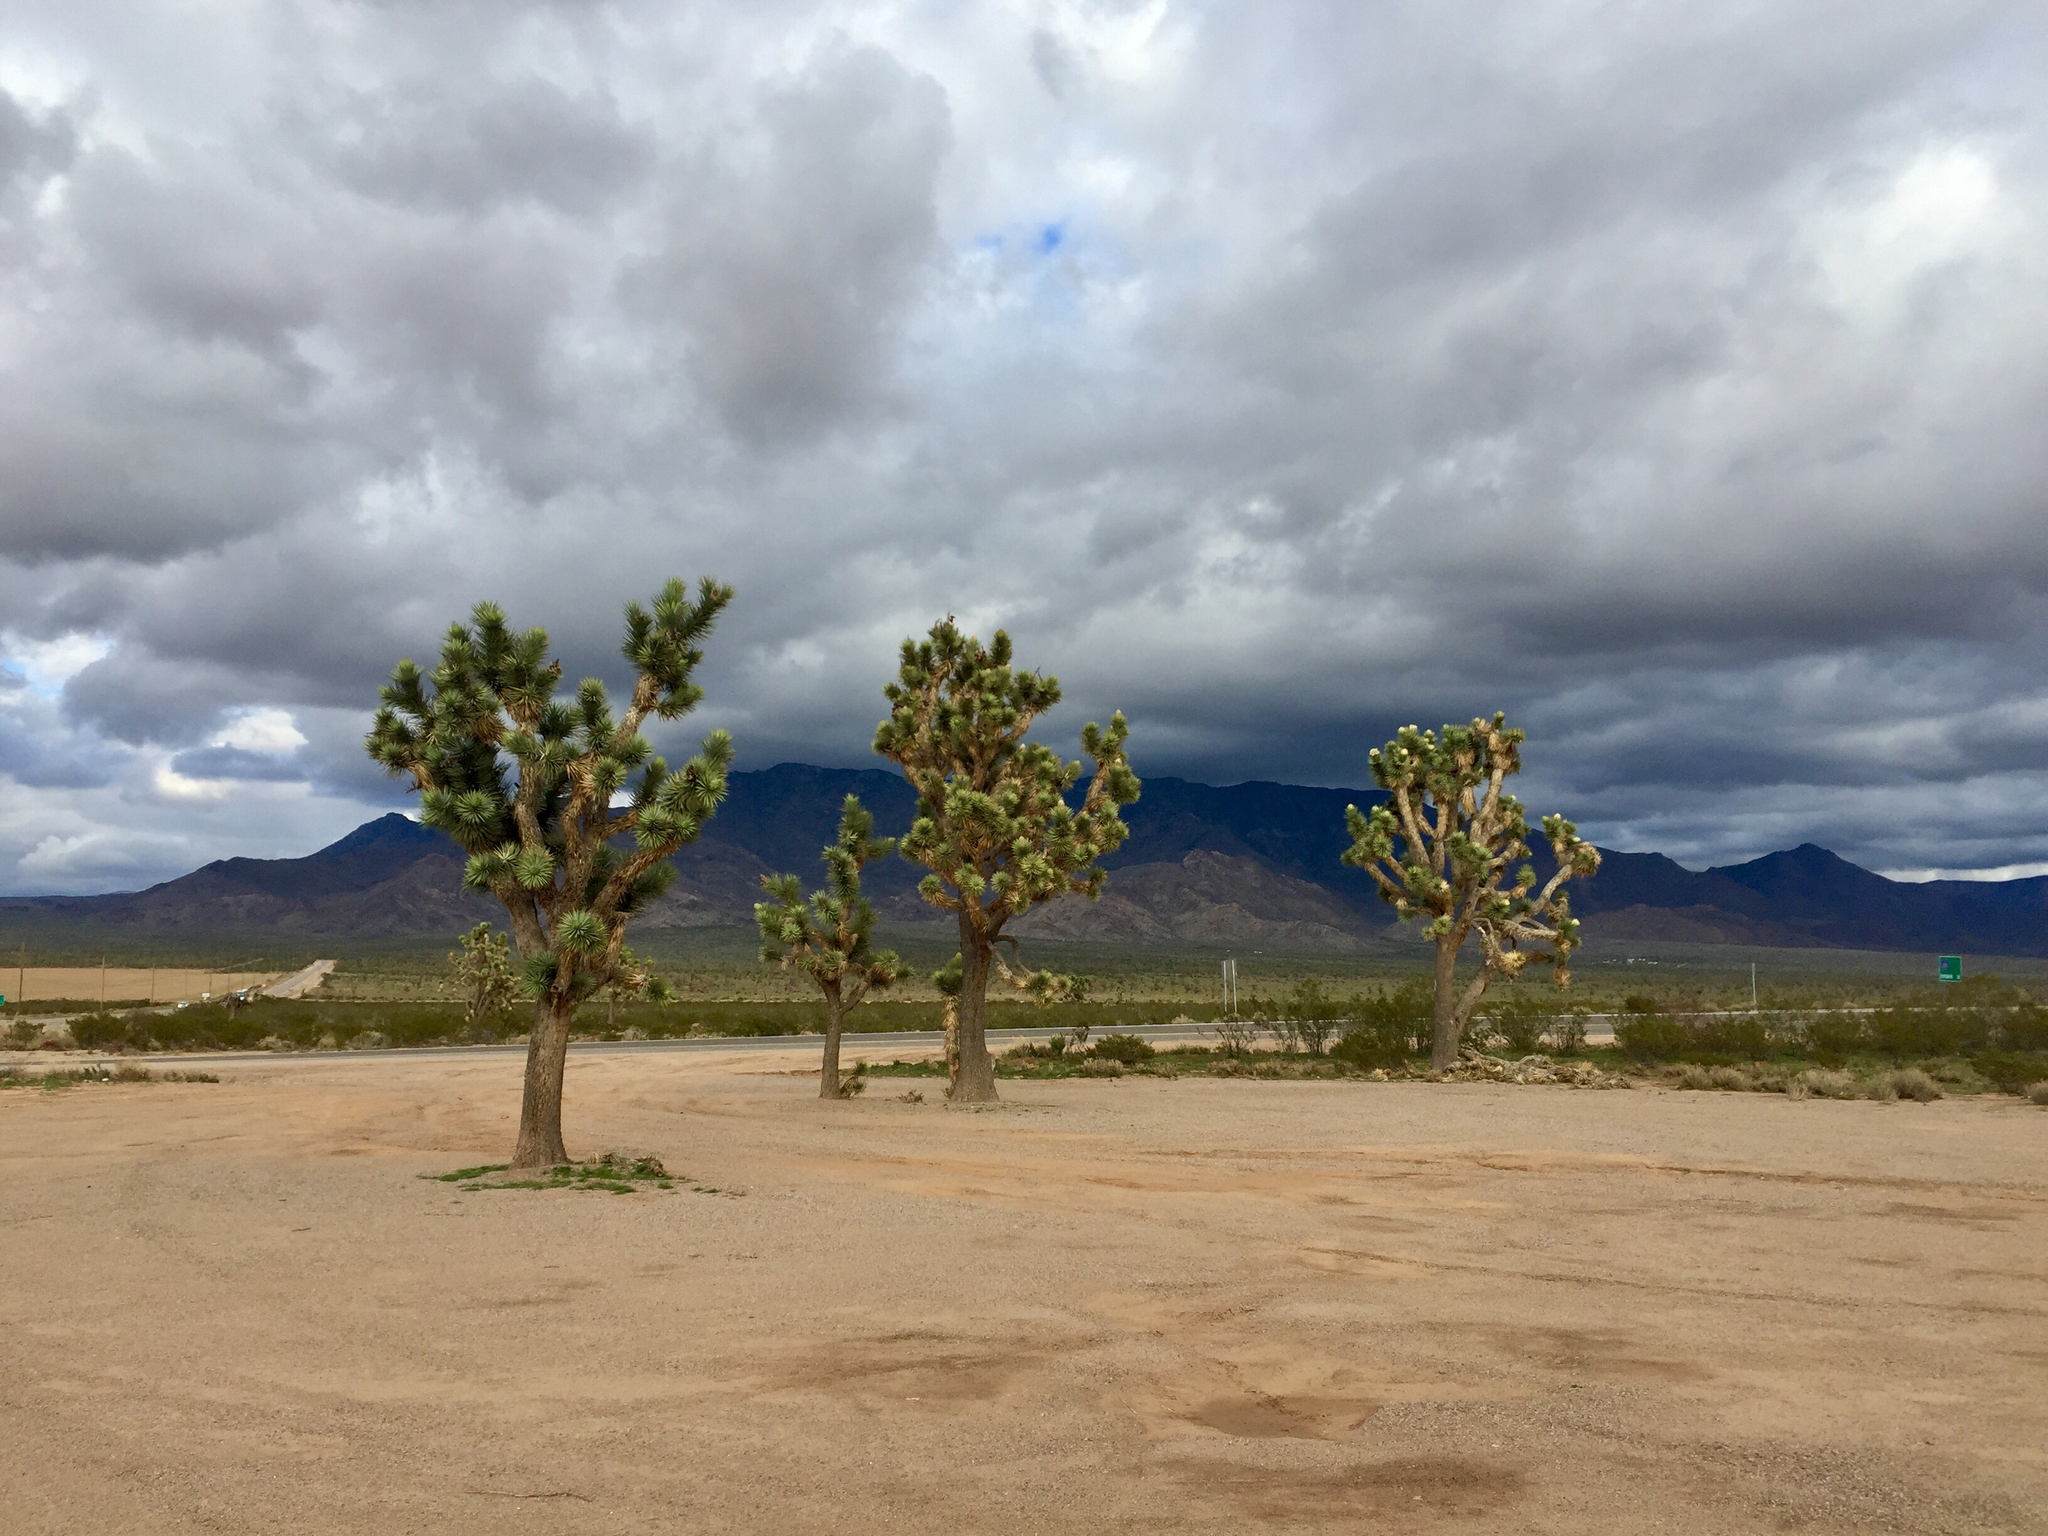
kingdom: Plantae
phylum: Tracheophyta
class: Liliopsida
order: Asparagales
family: Asparagaceae
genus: Yucca
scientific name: Yucca brevifolia
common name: Joshua tree
